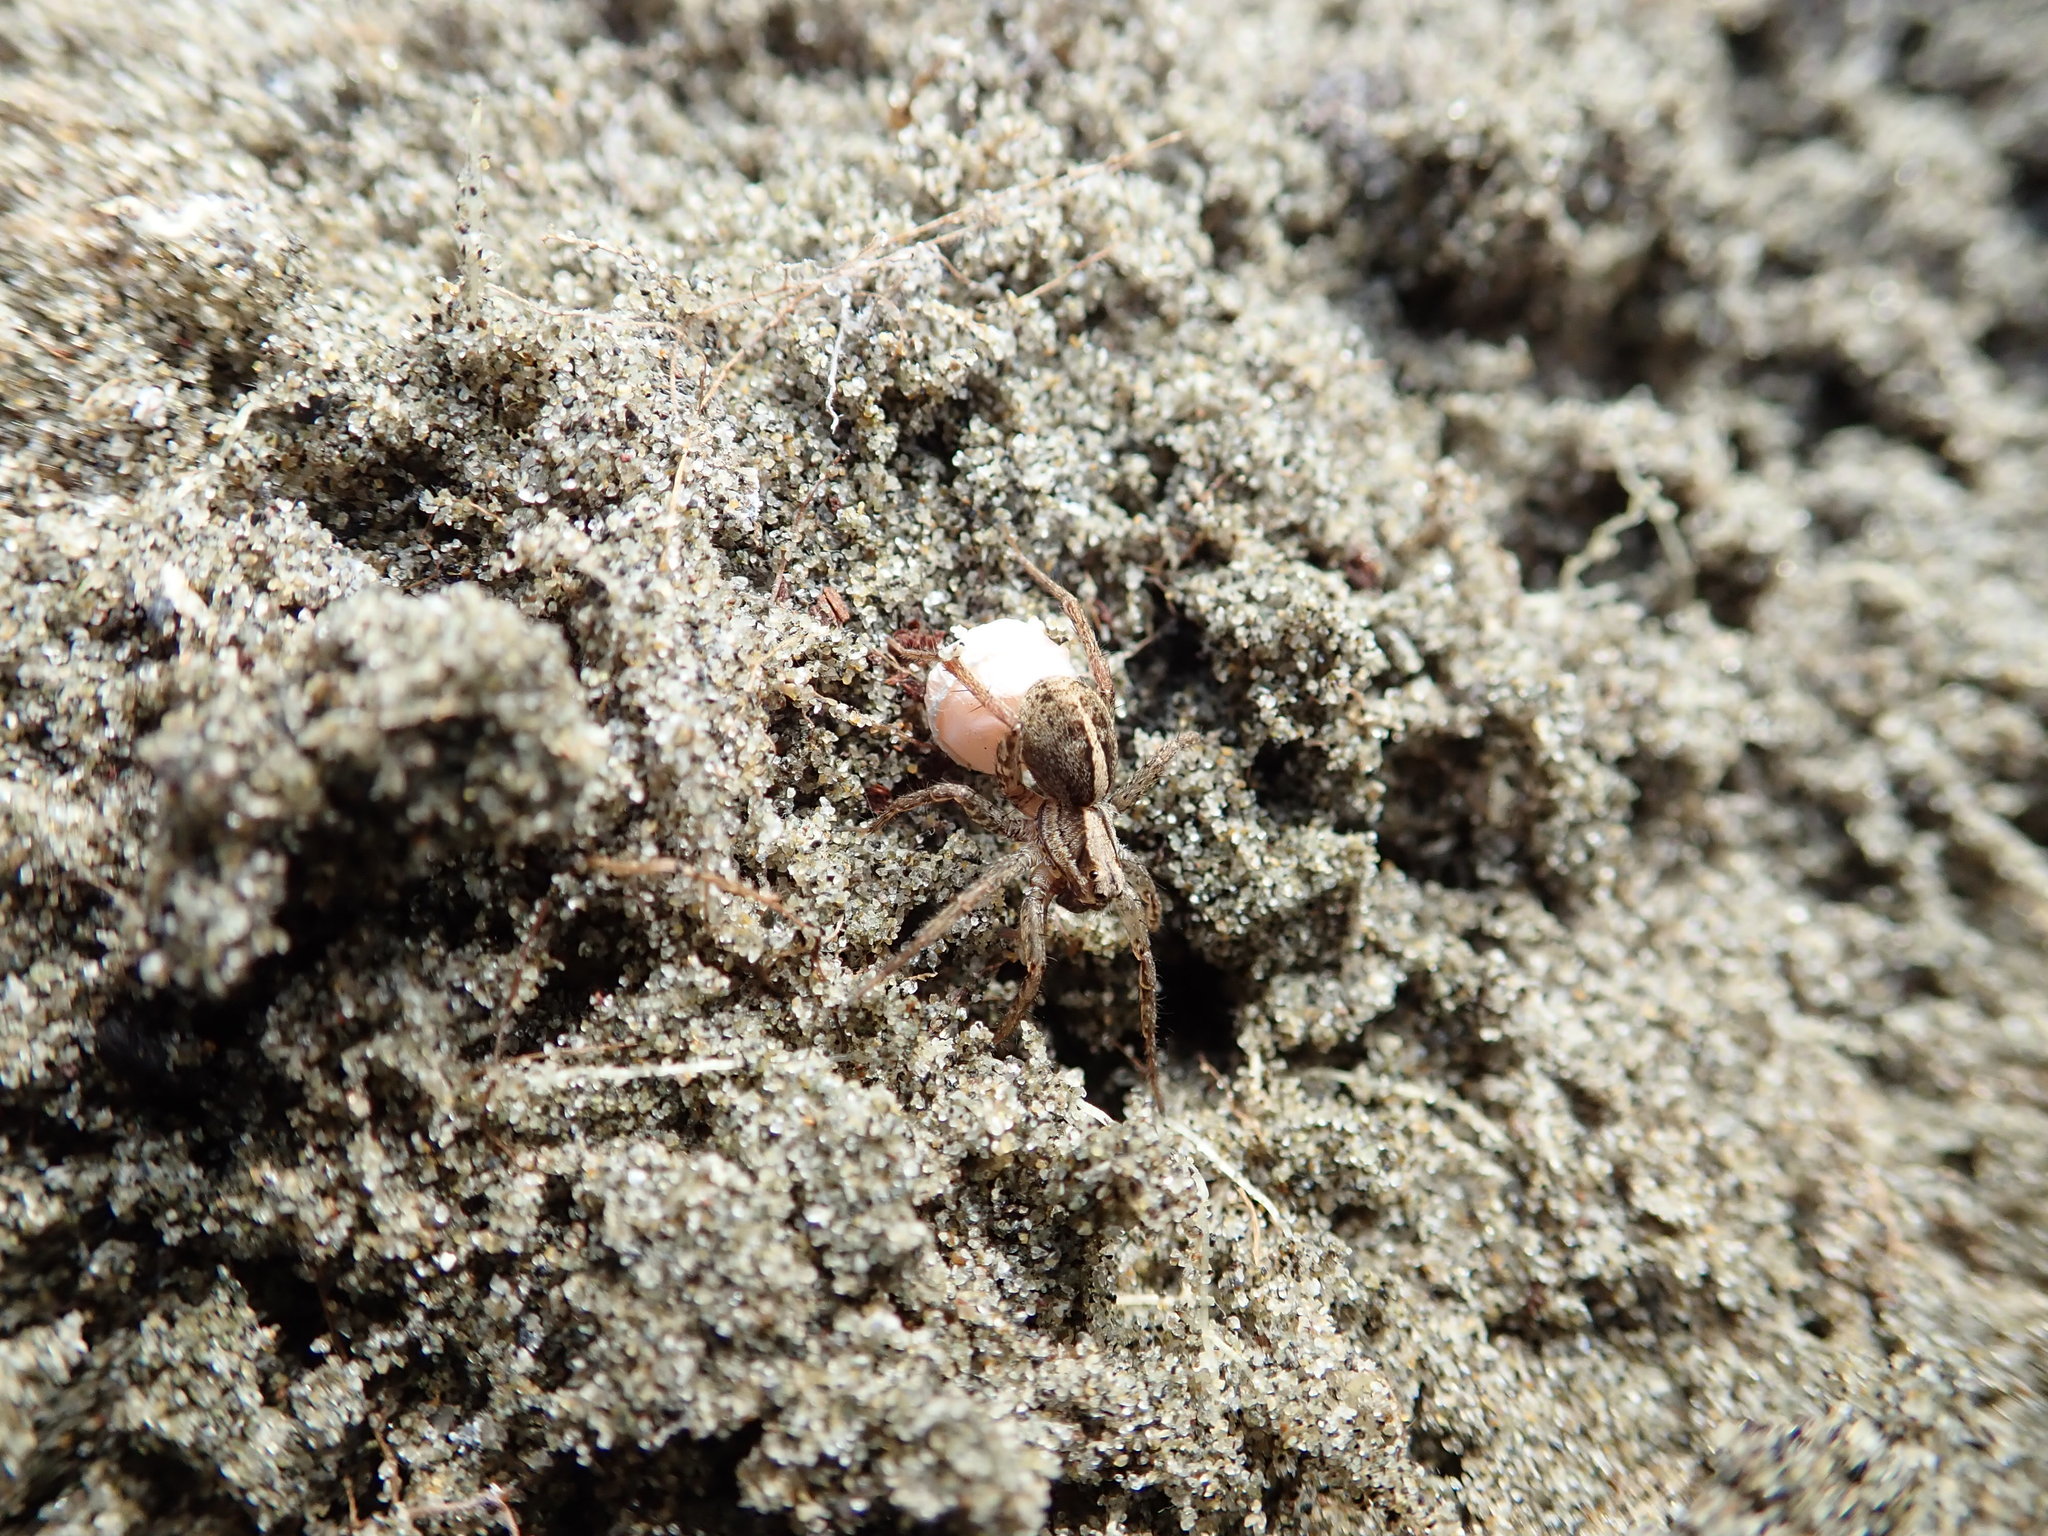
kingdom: Animalia
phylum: Arthropoda
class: Arachnida
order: Araneae
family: Lycosidae
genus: Anoteropsis
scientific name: Anoteropsis hilaris
